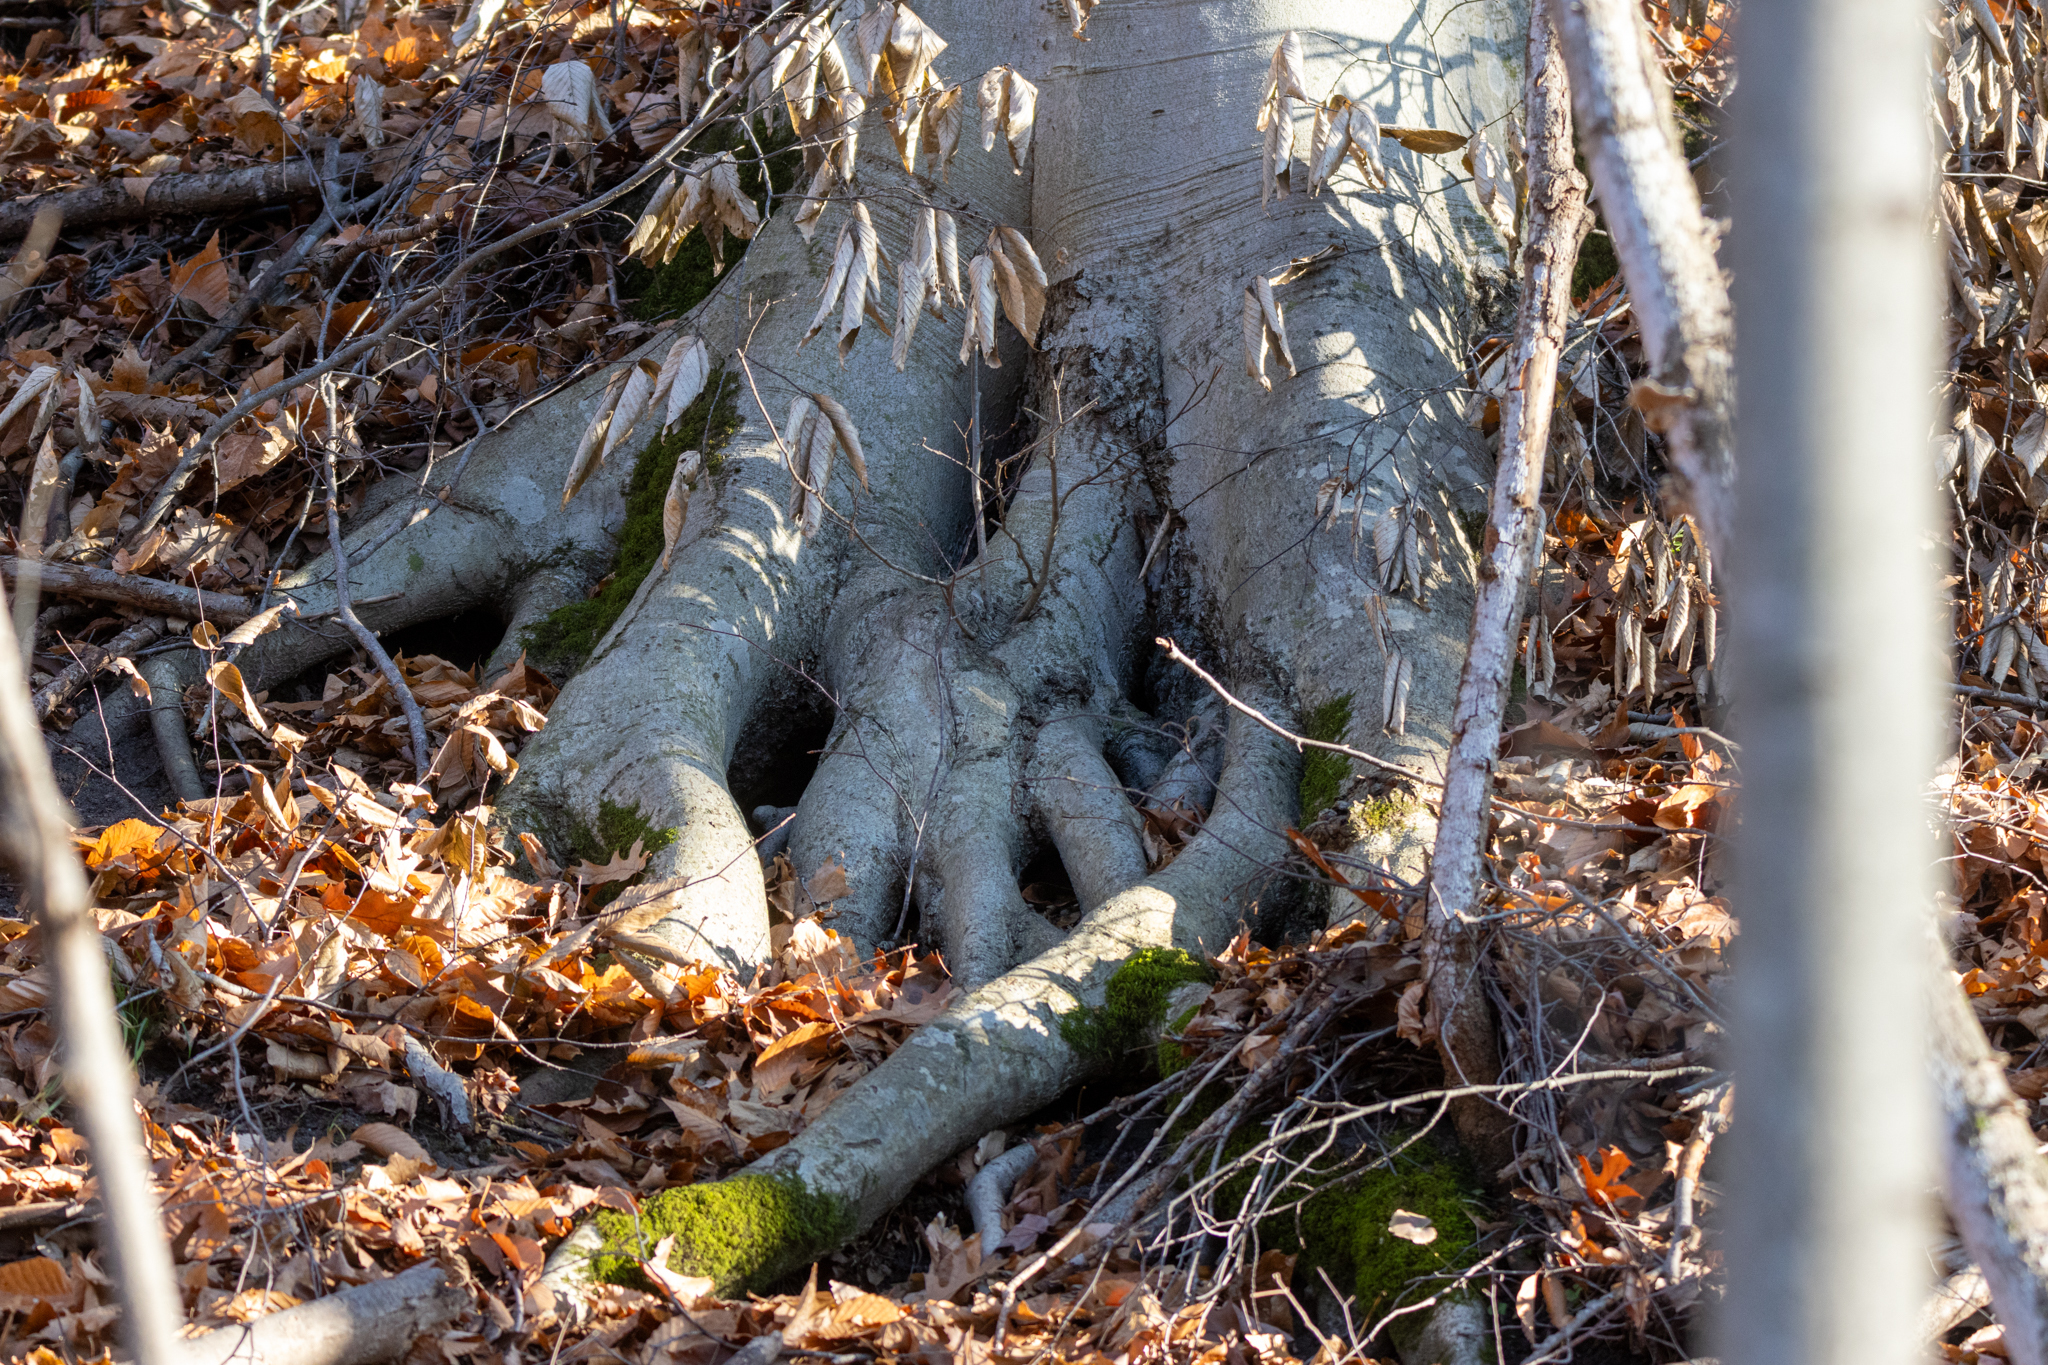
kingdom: Plantae
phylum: Tracheophyta
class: Magnoliopsida
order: Fagales
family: Fagaceae
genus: Fagus
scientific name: Fagus grandifolia
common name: American beech
